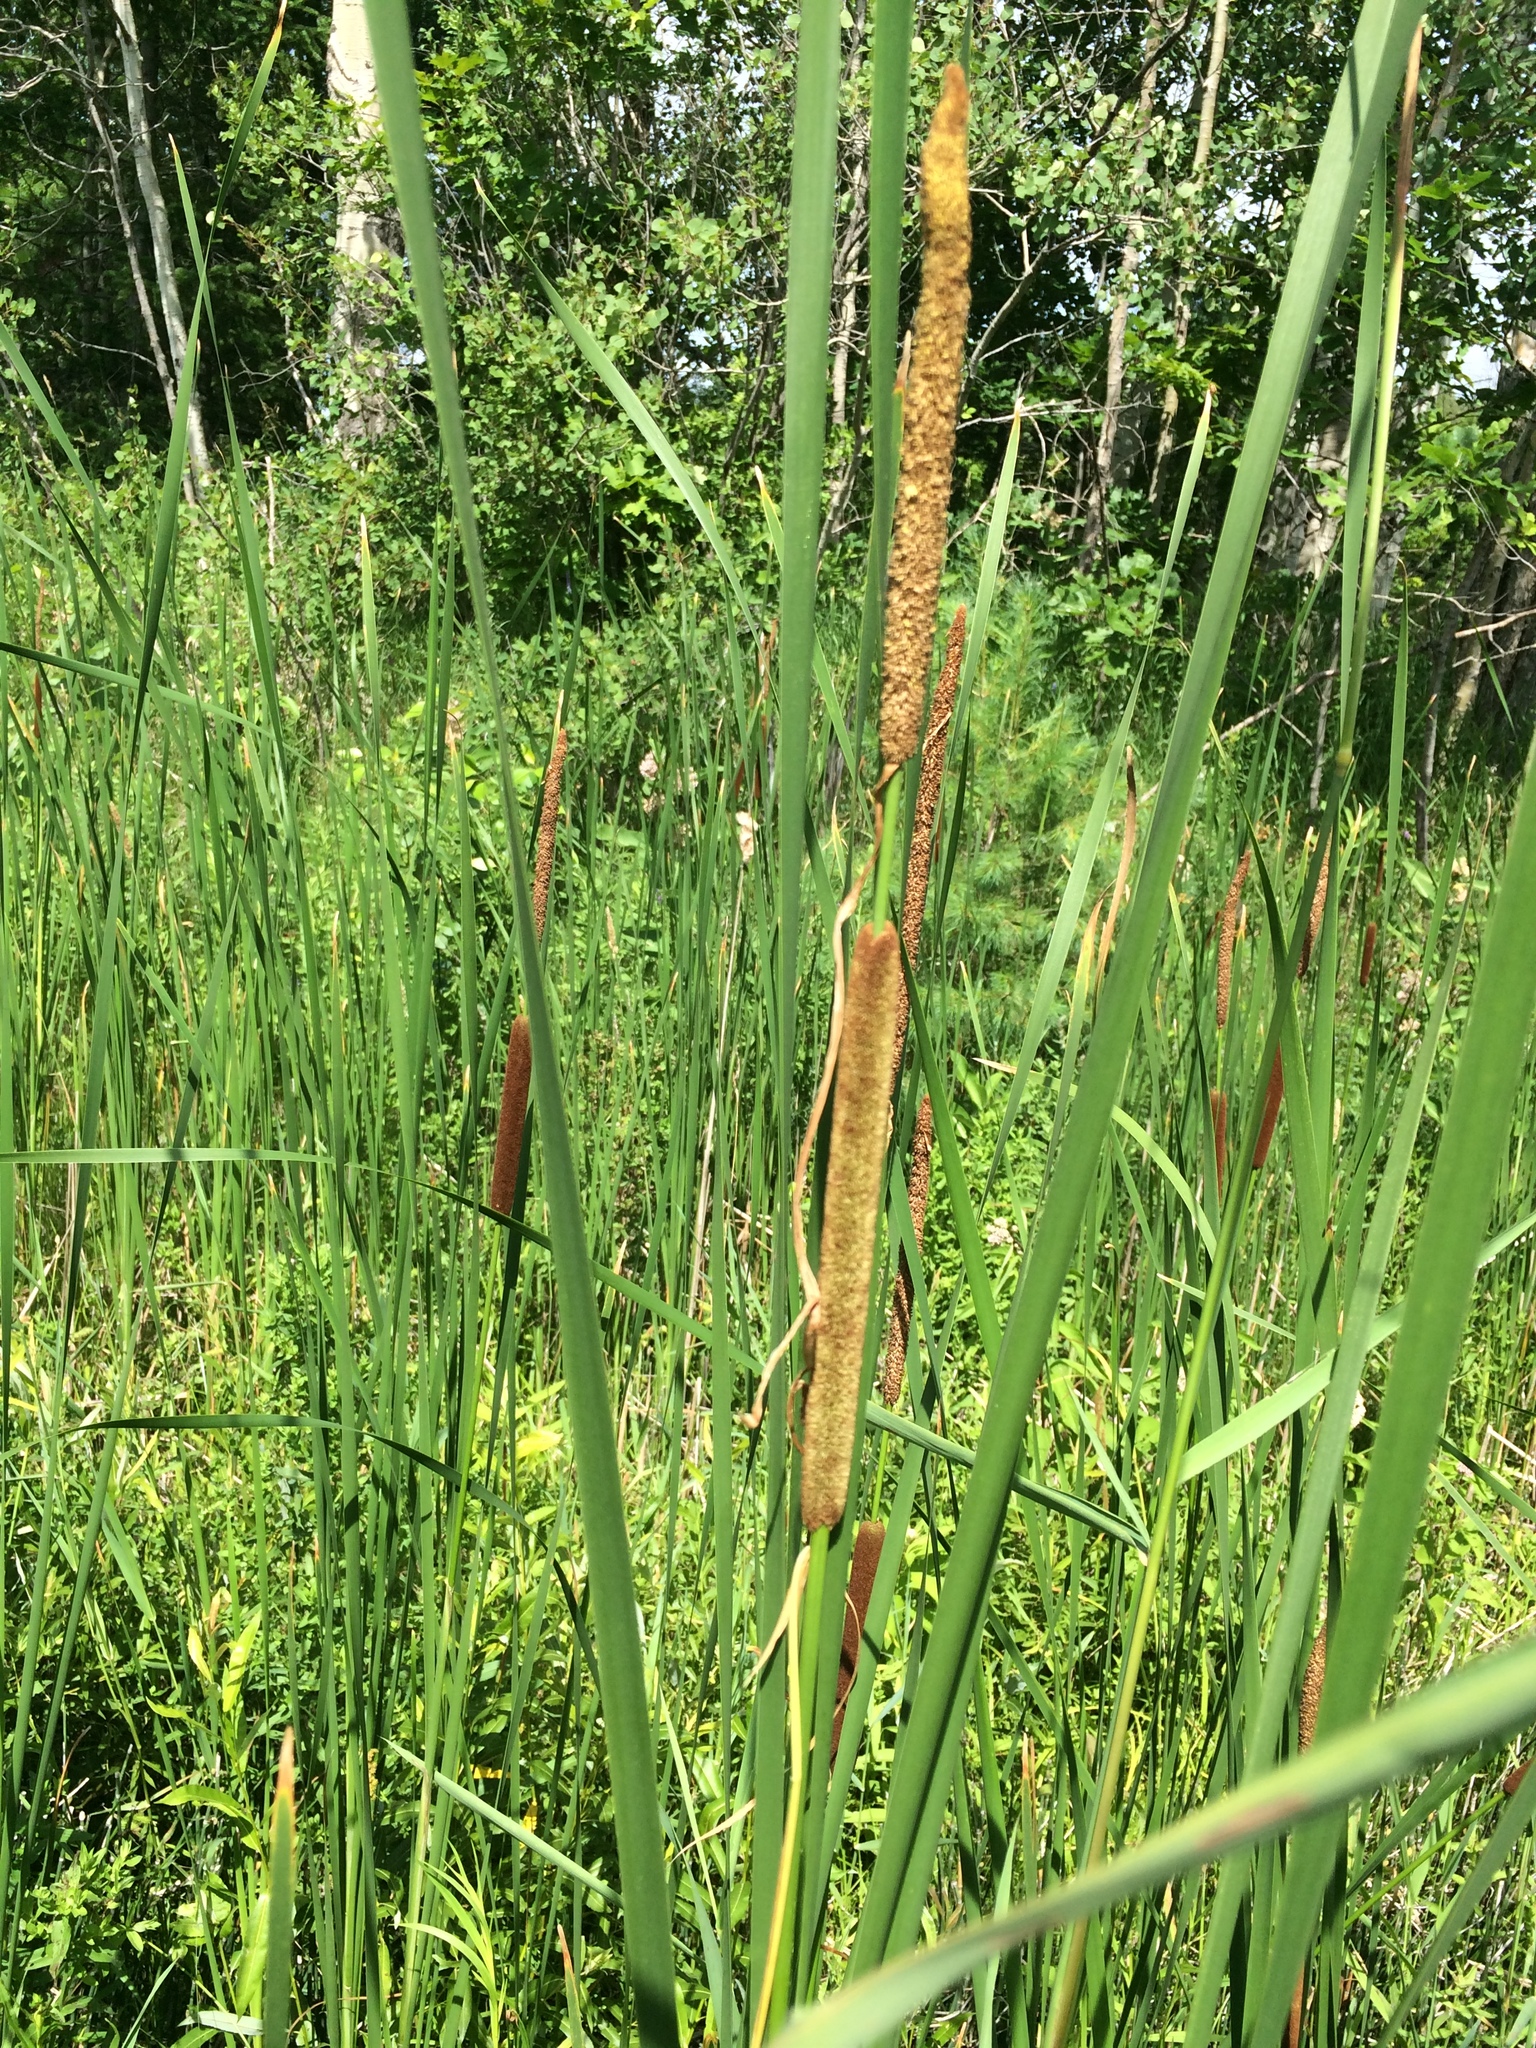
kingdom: Plantae
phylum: Tracheophyta
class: Liliopsida
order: Poales
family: Typhaceae
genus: Typha
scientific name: Typha angustifolia
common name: Lesser bulrush
